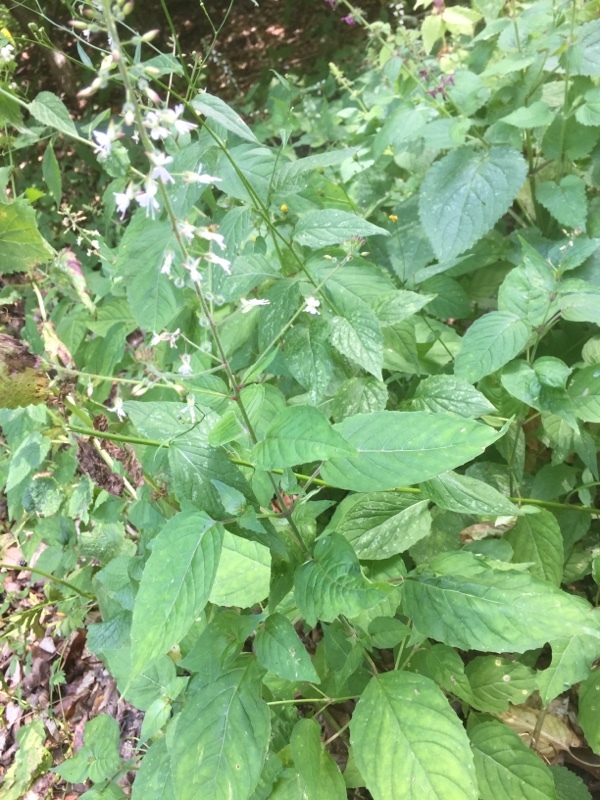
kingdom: Plantae
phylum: Tracheophyta
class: Magnoliopsida
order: Myrtales
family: Onagraceae
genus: Circaea
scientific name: Circaea lutetiana
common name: Enchanter's-nightshade
